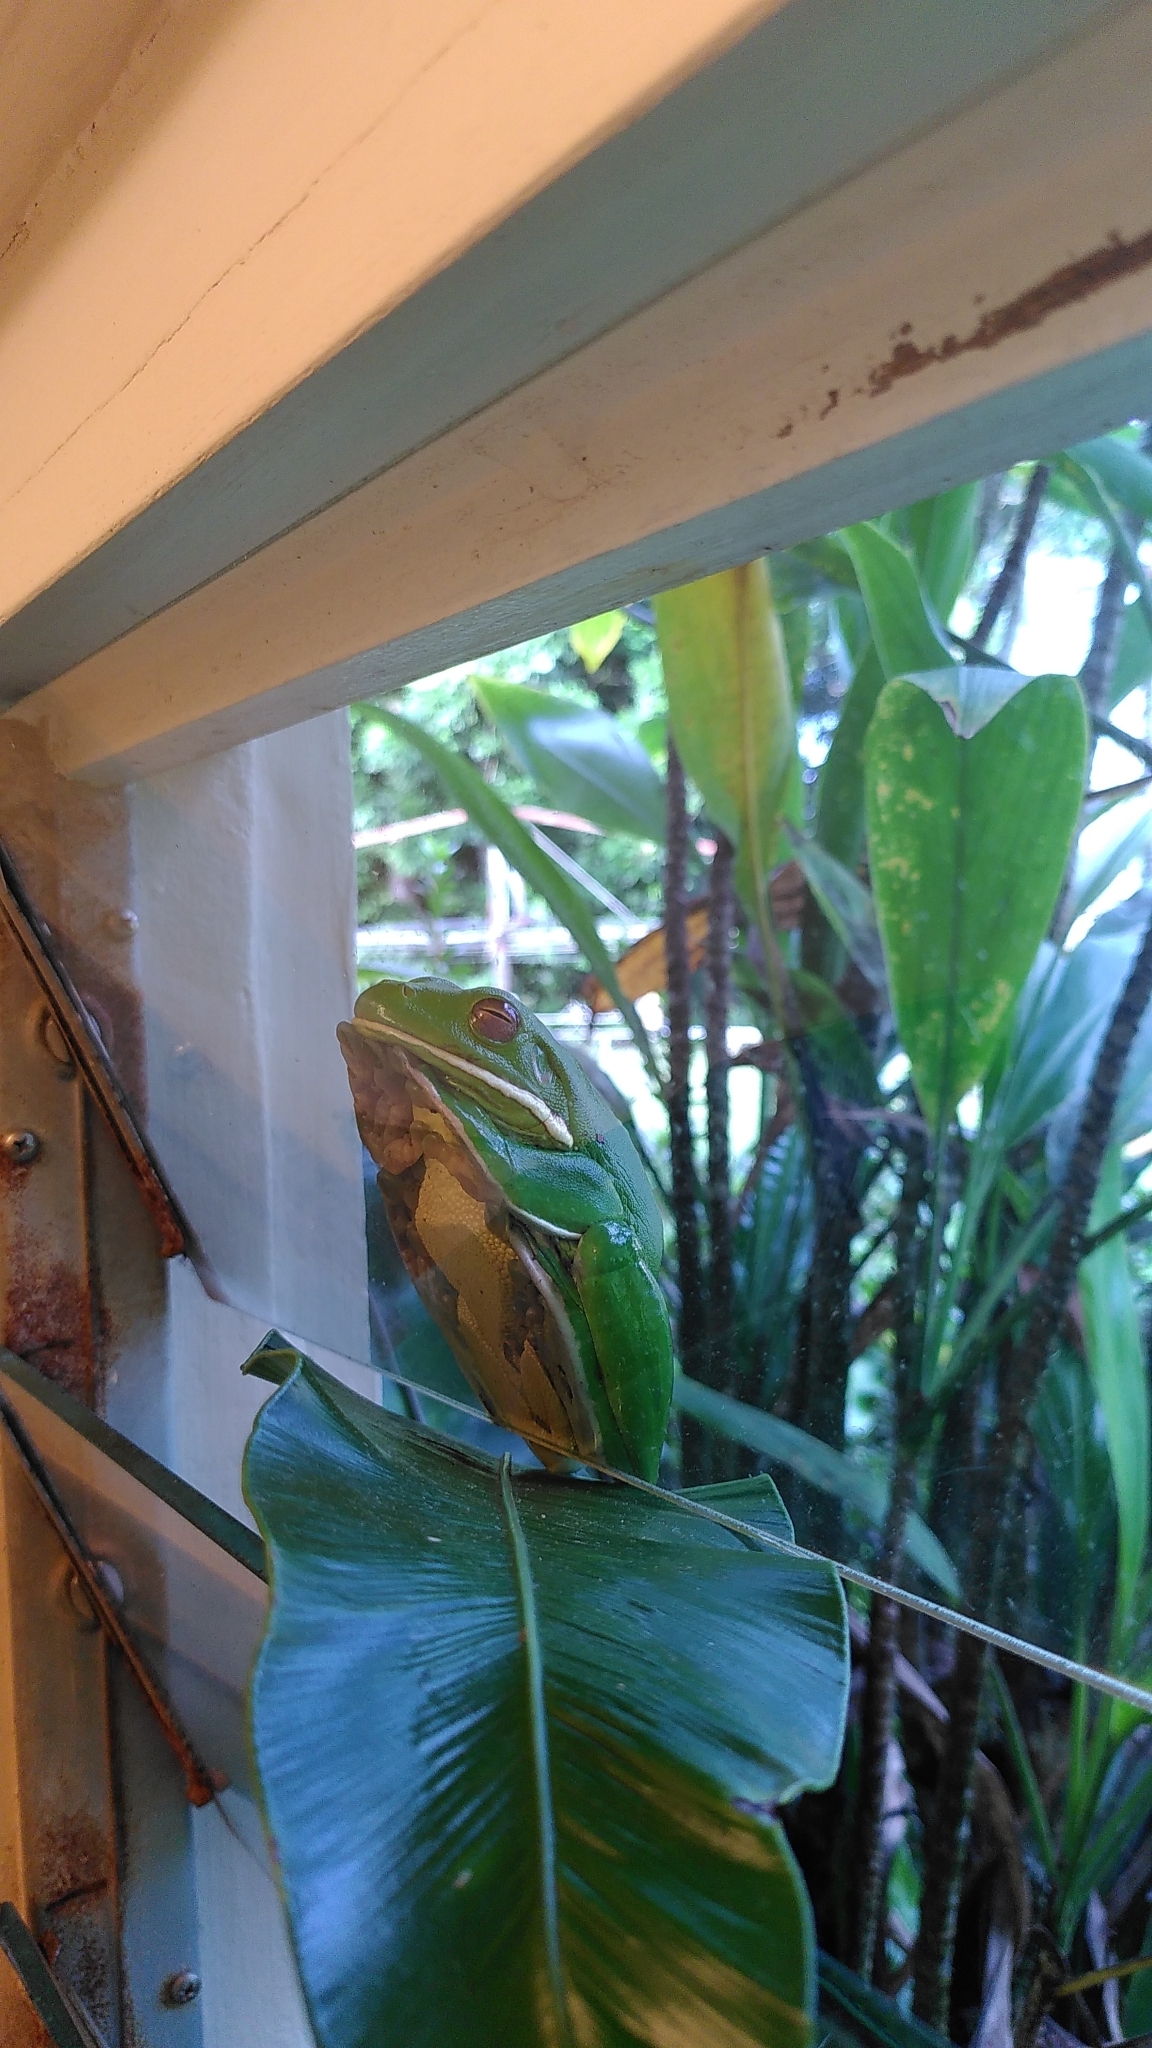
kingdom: Animalia
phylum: Chordata
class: Amphibia
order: Anura
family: Pelodryadidae
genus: Nyctimystes
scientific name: Nyctimystes infrafrenatus
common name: Australian giant treefrog
